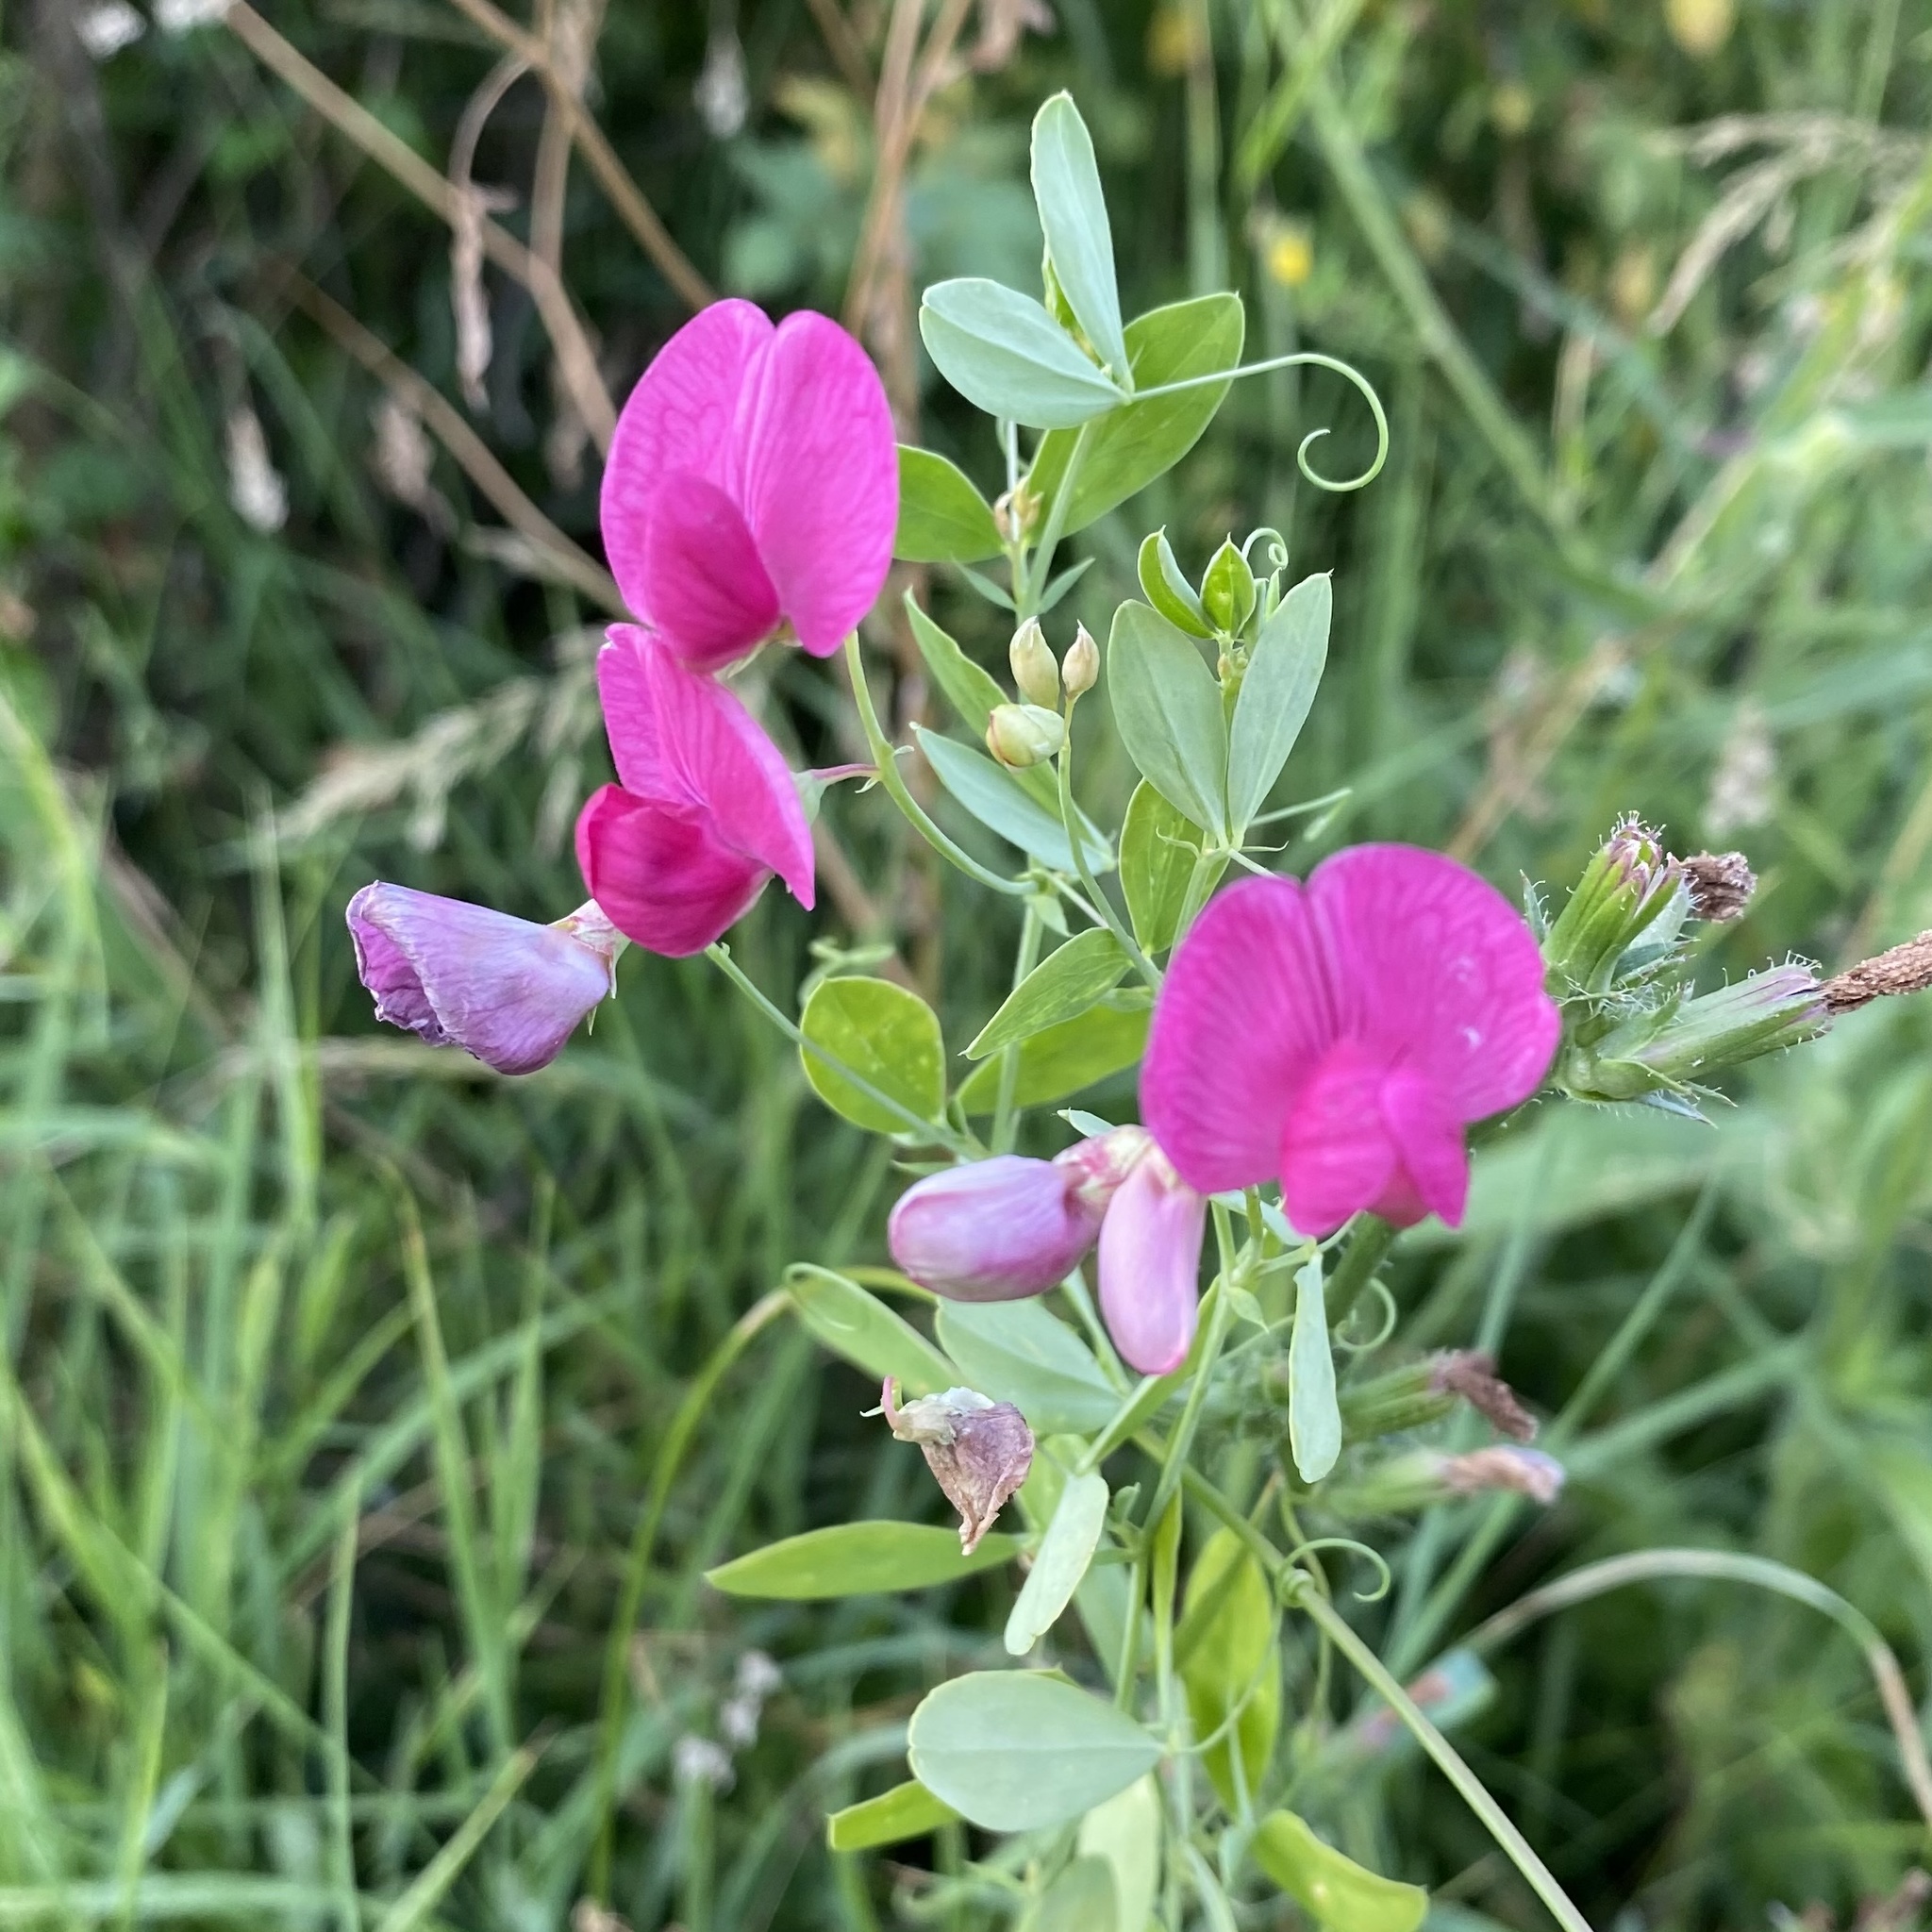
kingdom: Plantae
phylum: Tracheophyta
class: Magnoliopsida
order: Fabales
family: Fabaceae
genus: Lathyrus
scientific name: Lathyrus tuberosus
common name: Tuberous pea
